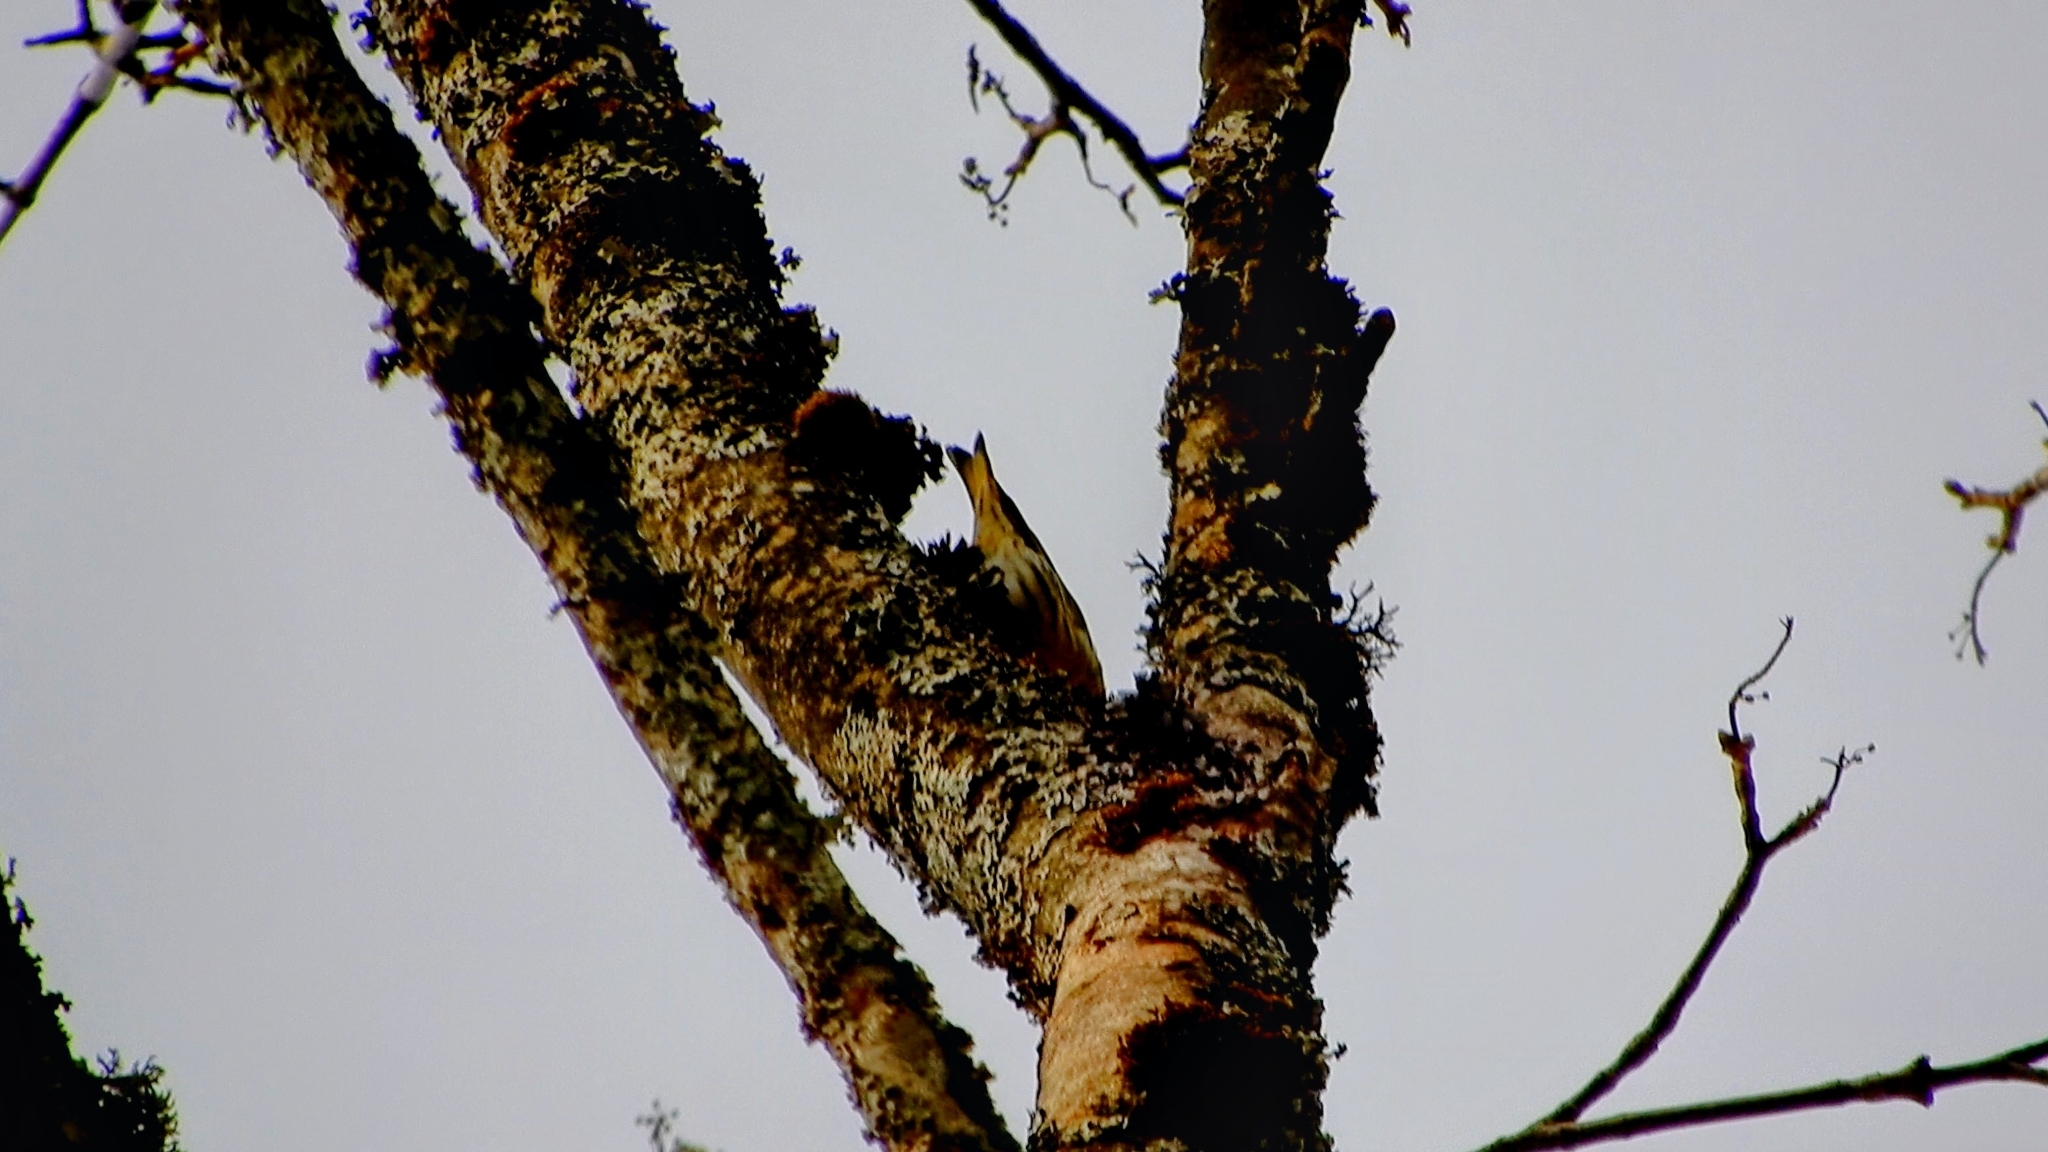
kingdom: Animalia
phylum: Chordata
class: Aves
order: Passeriformes
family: Fringillidae
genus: Spinus
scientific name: Spinus spinus
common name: Eurasian siskin
